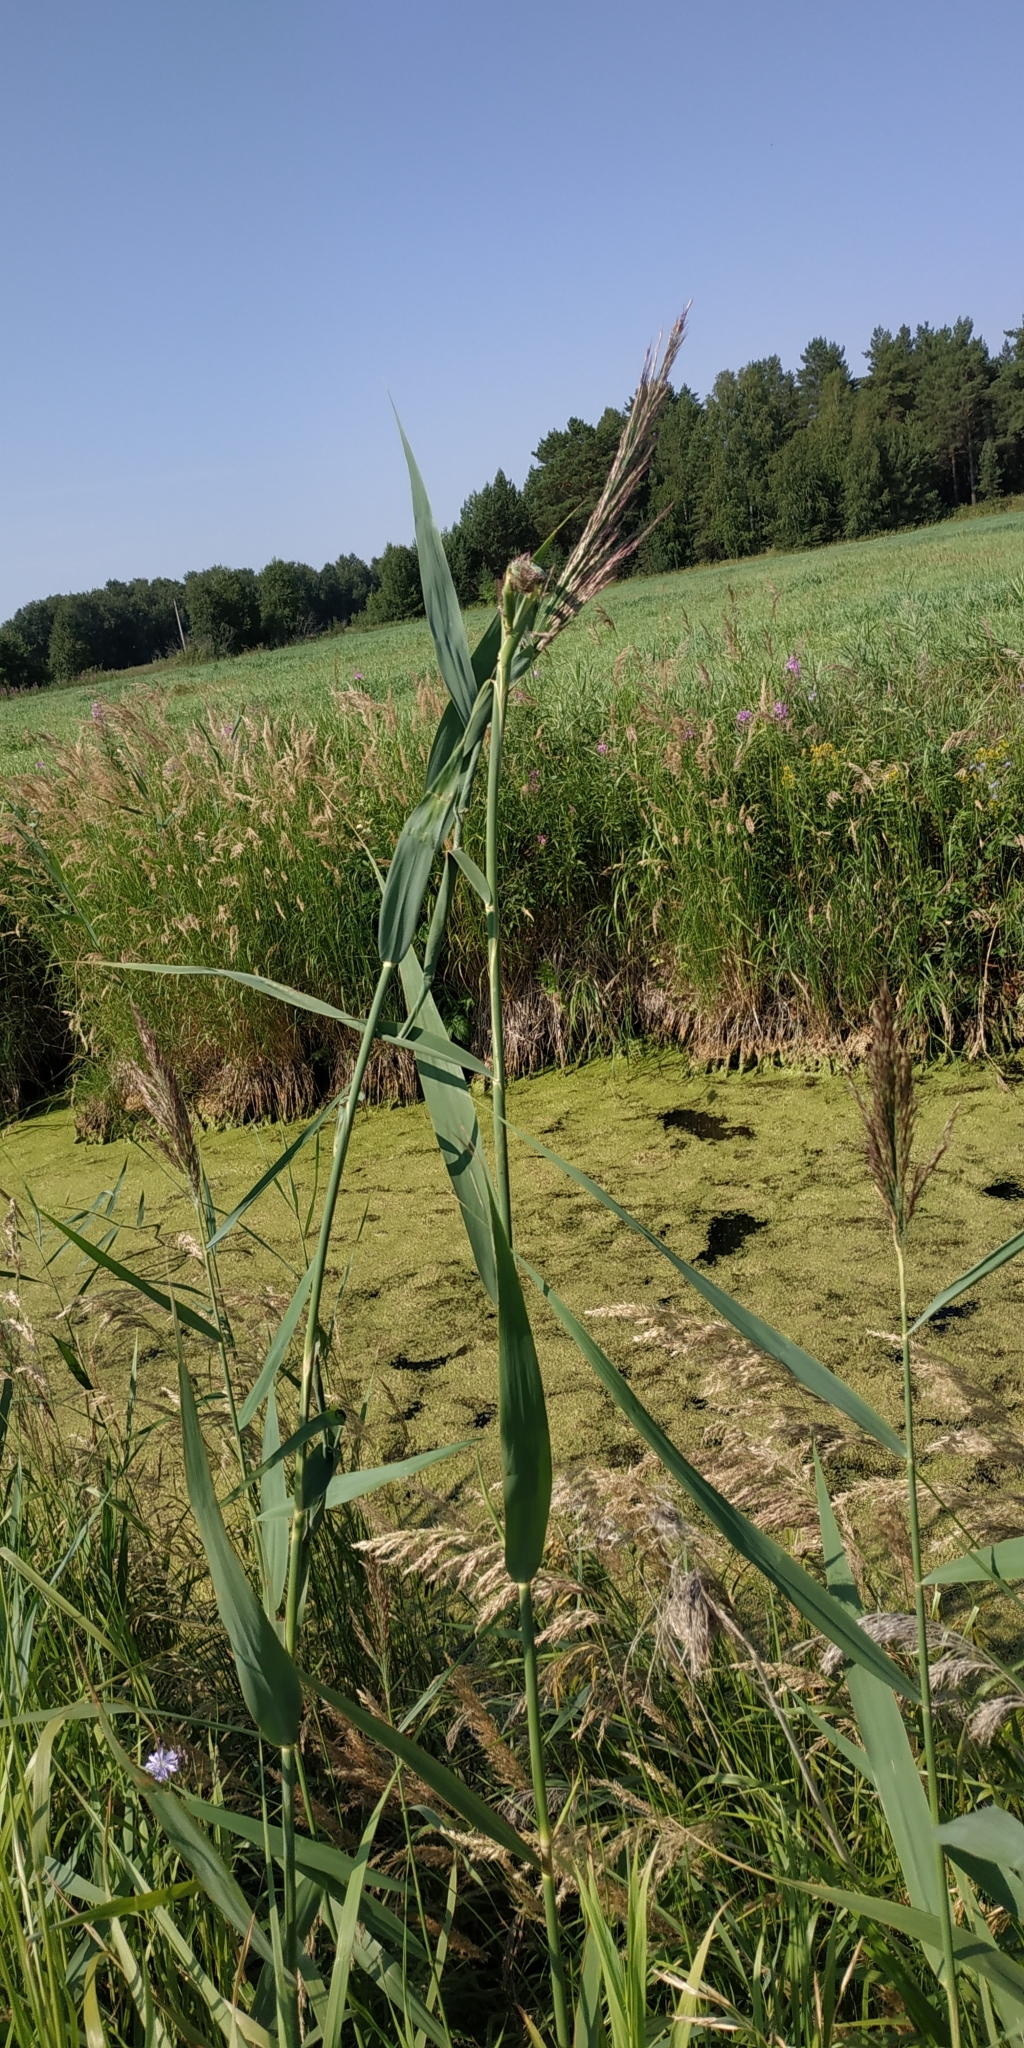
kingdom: Plantae
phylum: Tracheophyta
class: Liliopsida
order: Poales
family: Poaceae
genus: Phragmites
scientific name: Phragmites australis
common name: Common reed
